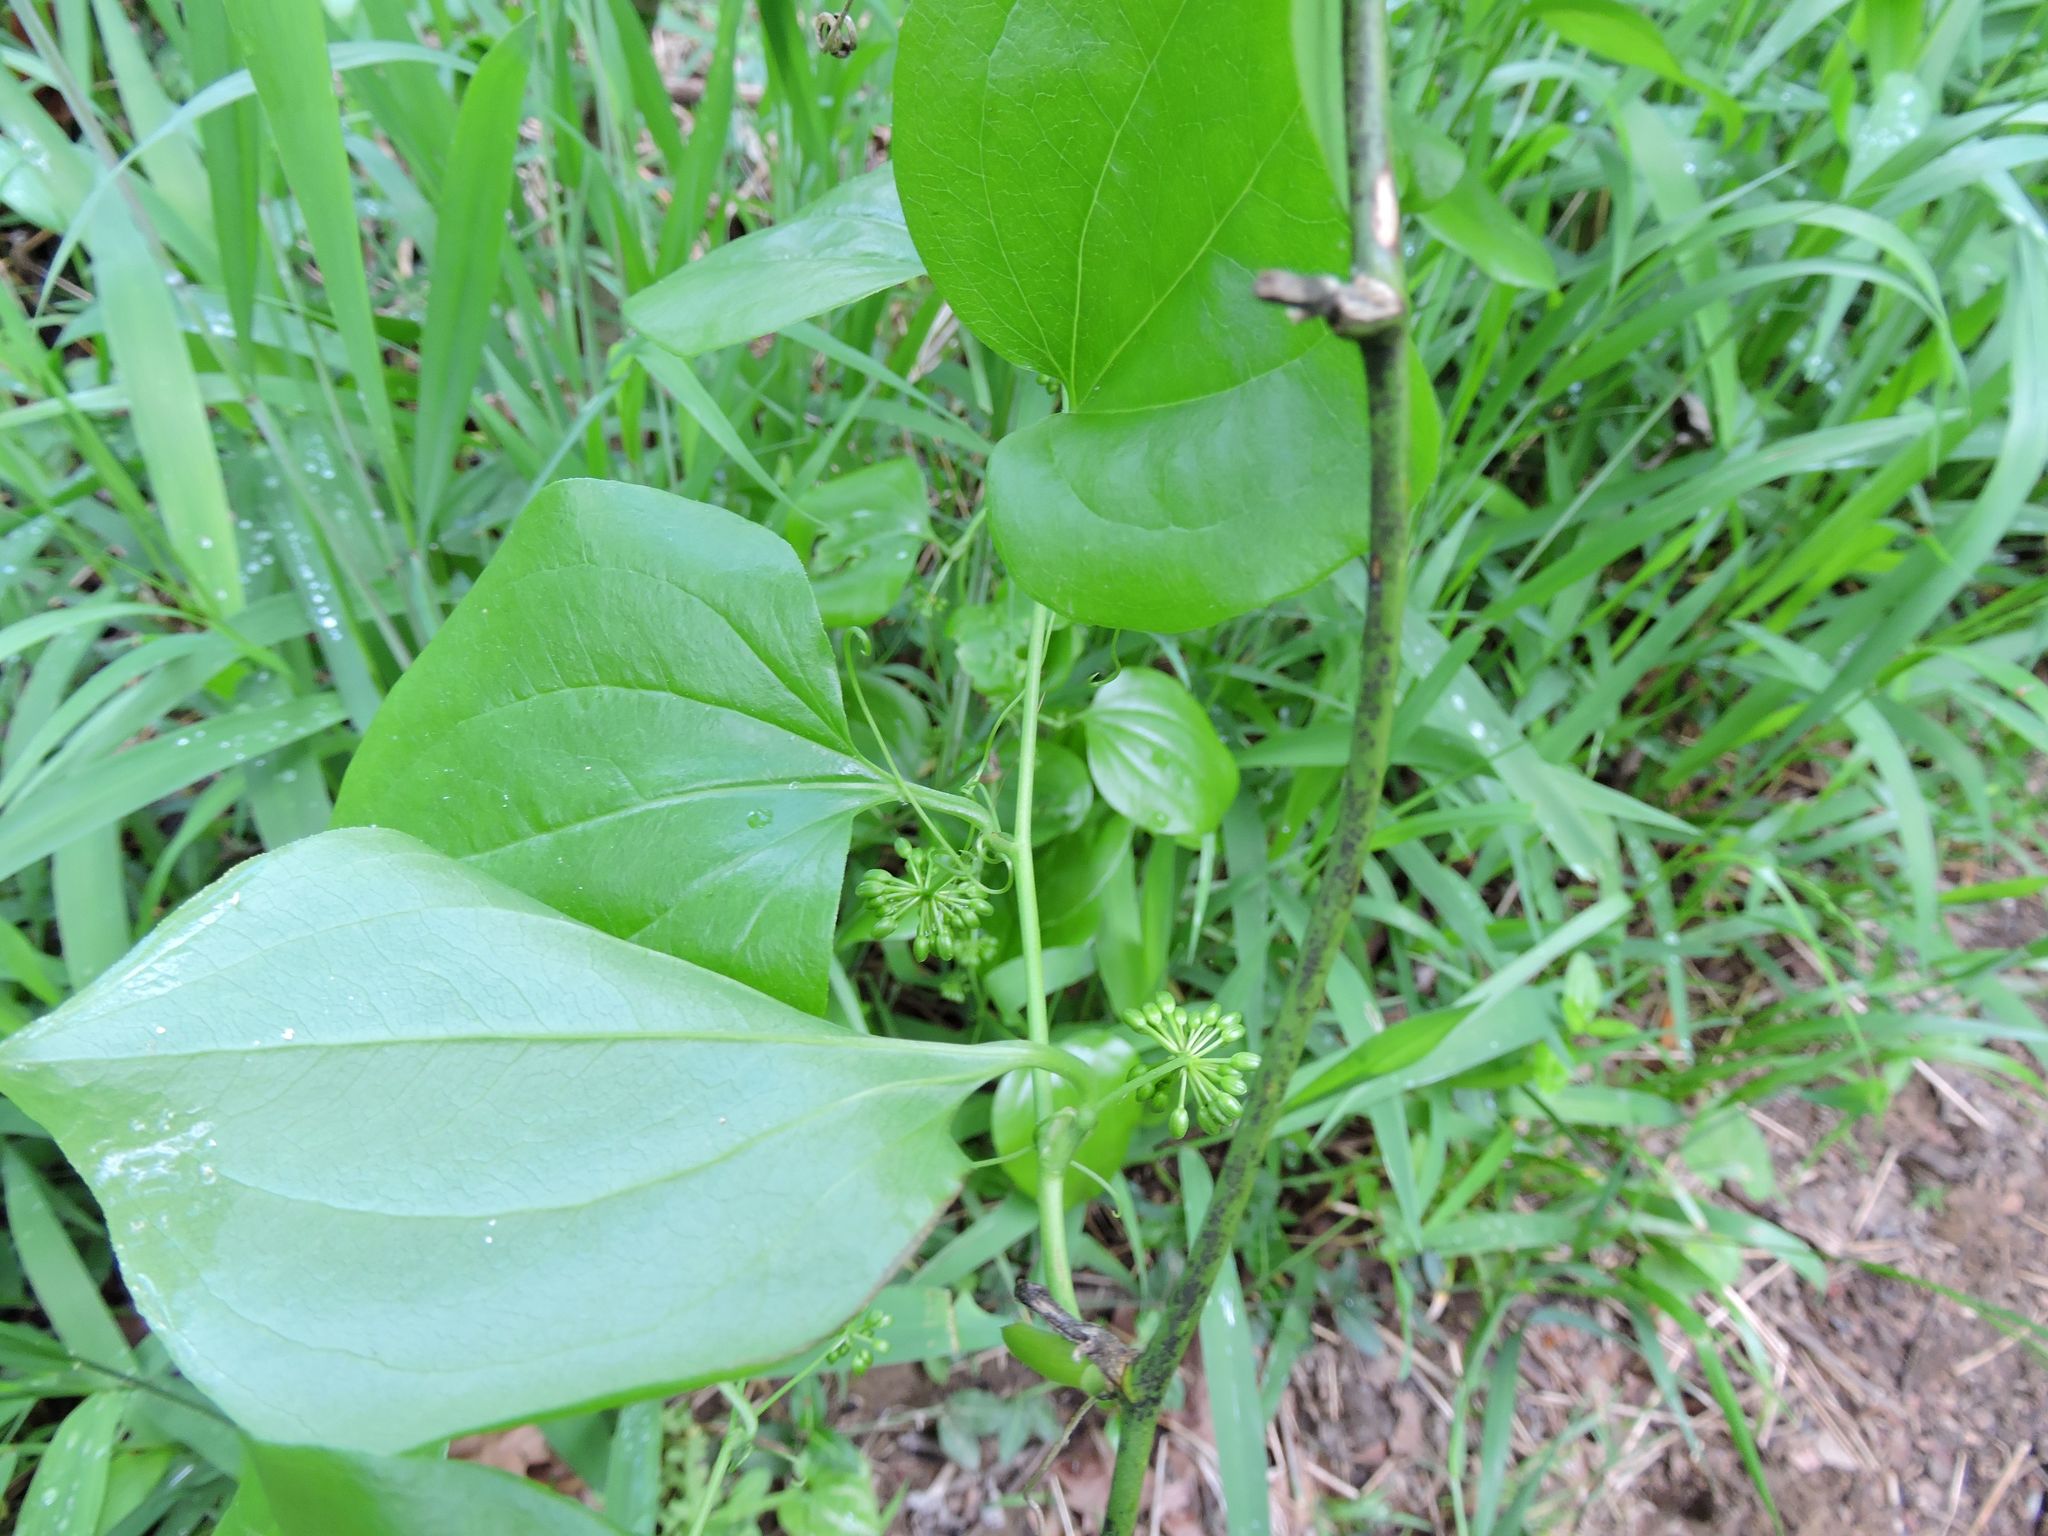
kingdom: Plantae
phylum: Tracheophyta
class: Liliopsida
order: Liliales
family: Smilacaceae
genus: Smilax
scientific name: Smilax rotundifolia
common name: Bullbriar
